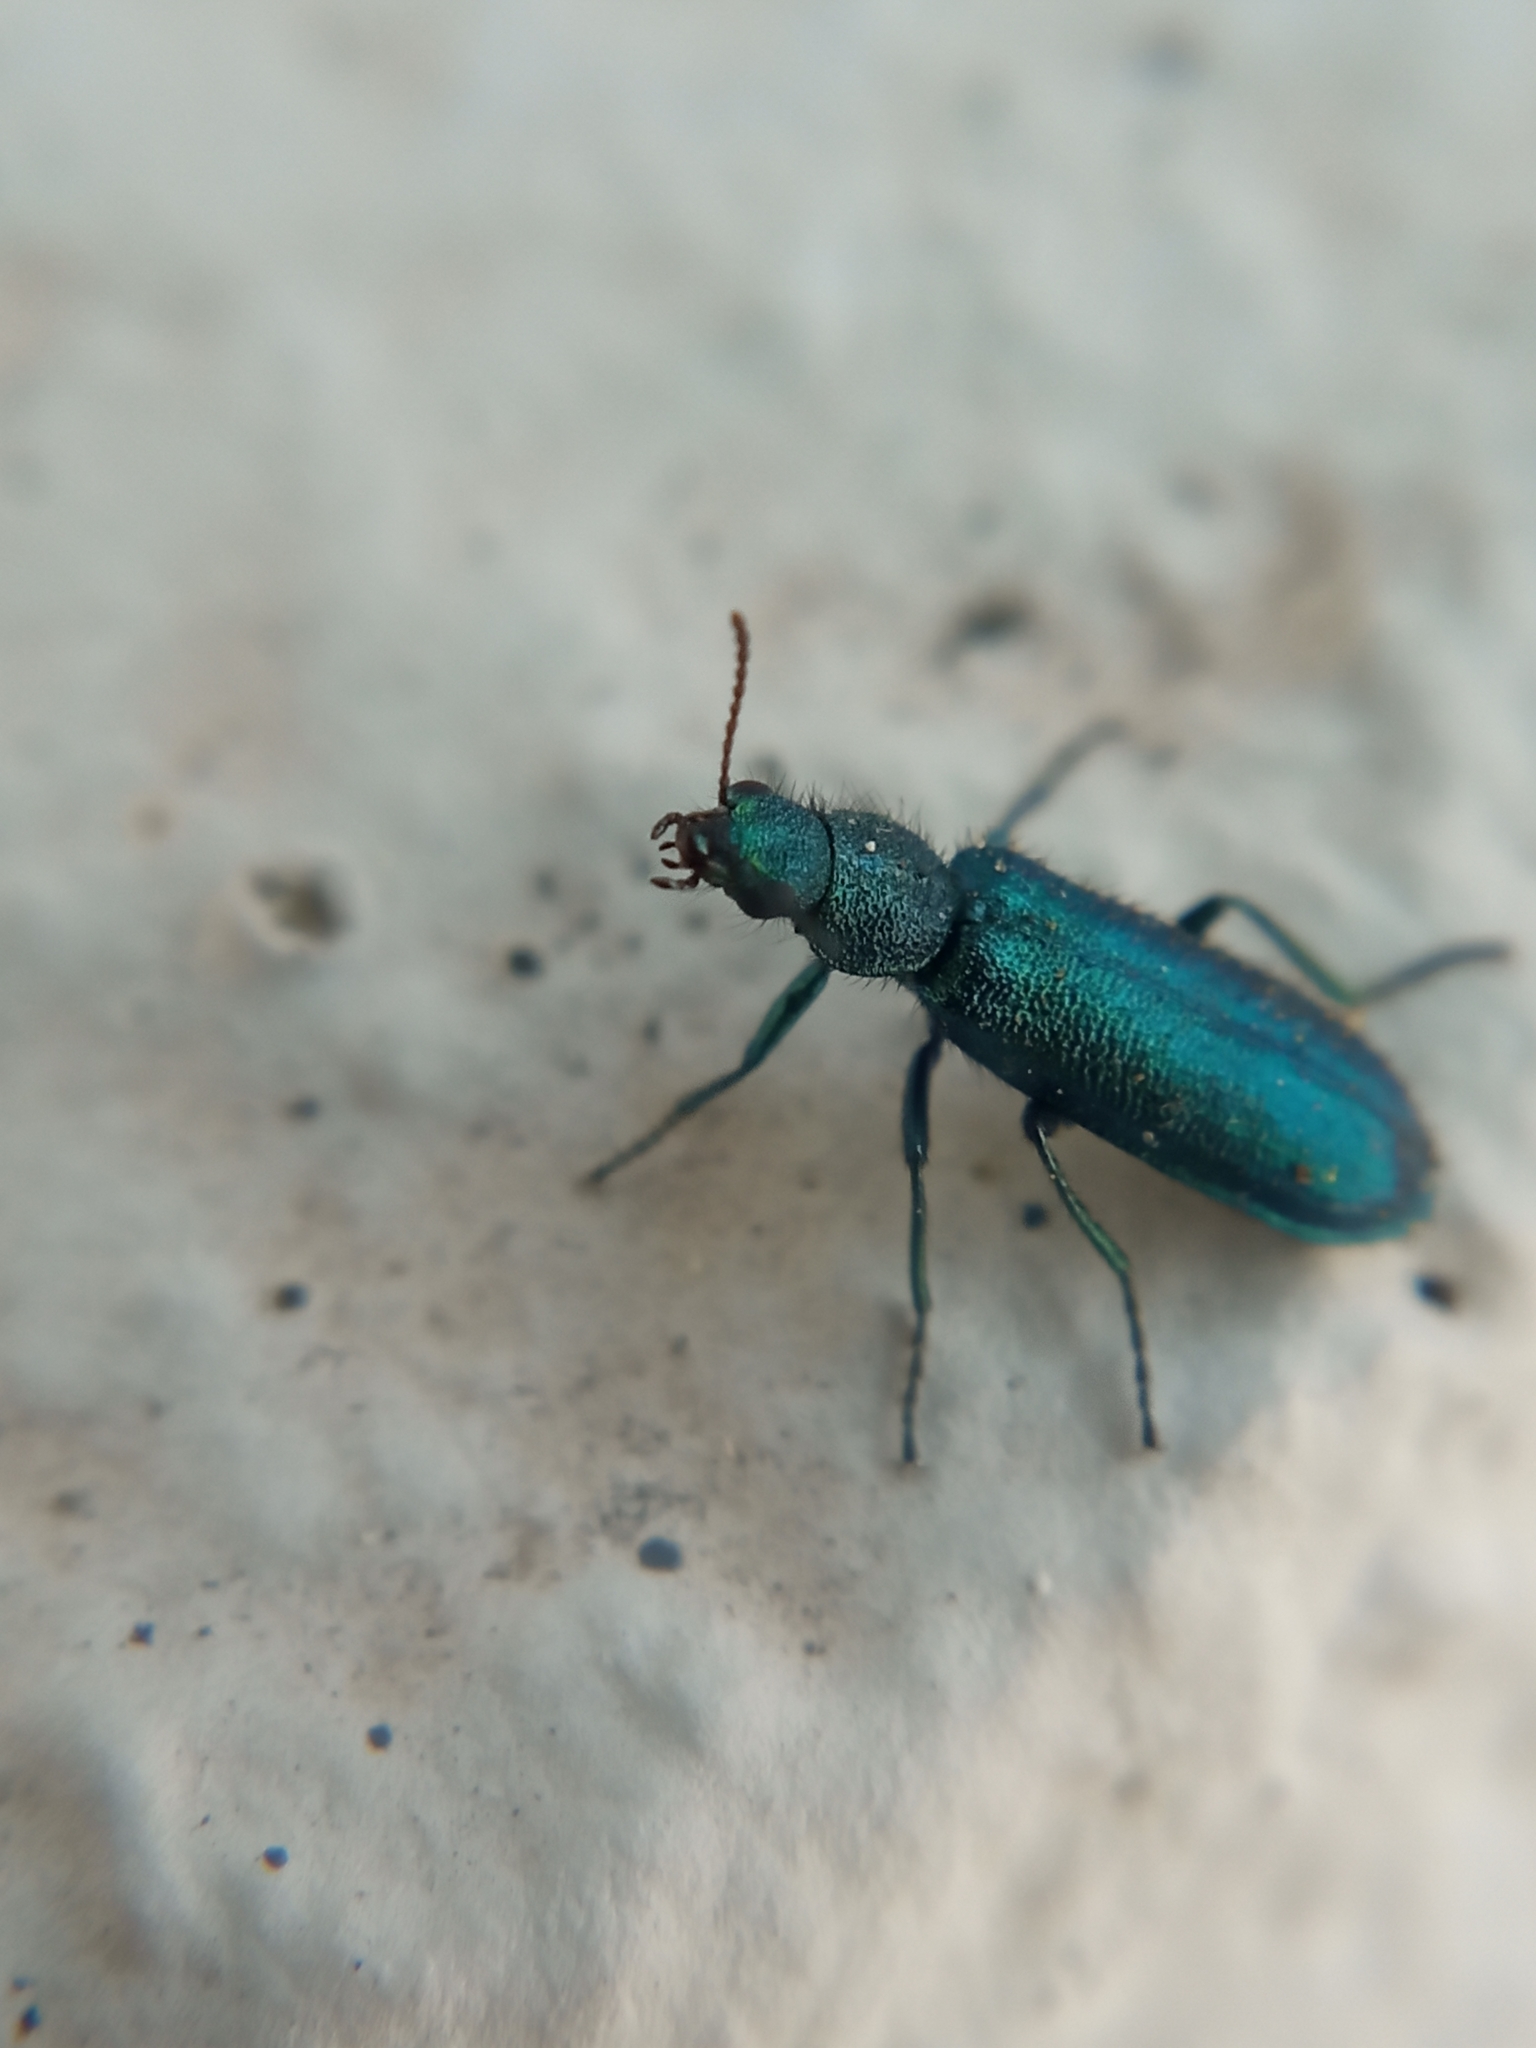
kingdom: Animalia
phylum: Arthropoda
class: Insecta
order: Coleoptera
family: Dasytidae
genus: Psilothrix
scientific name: Psilothrix viridicoerulea
